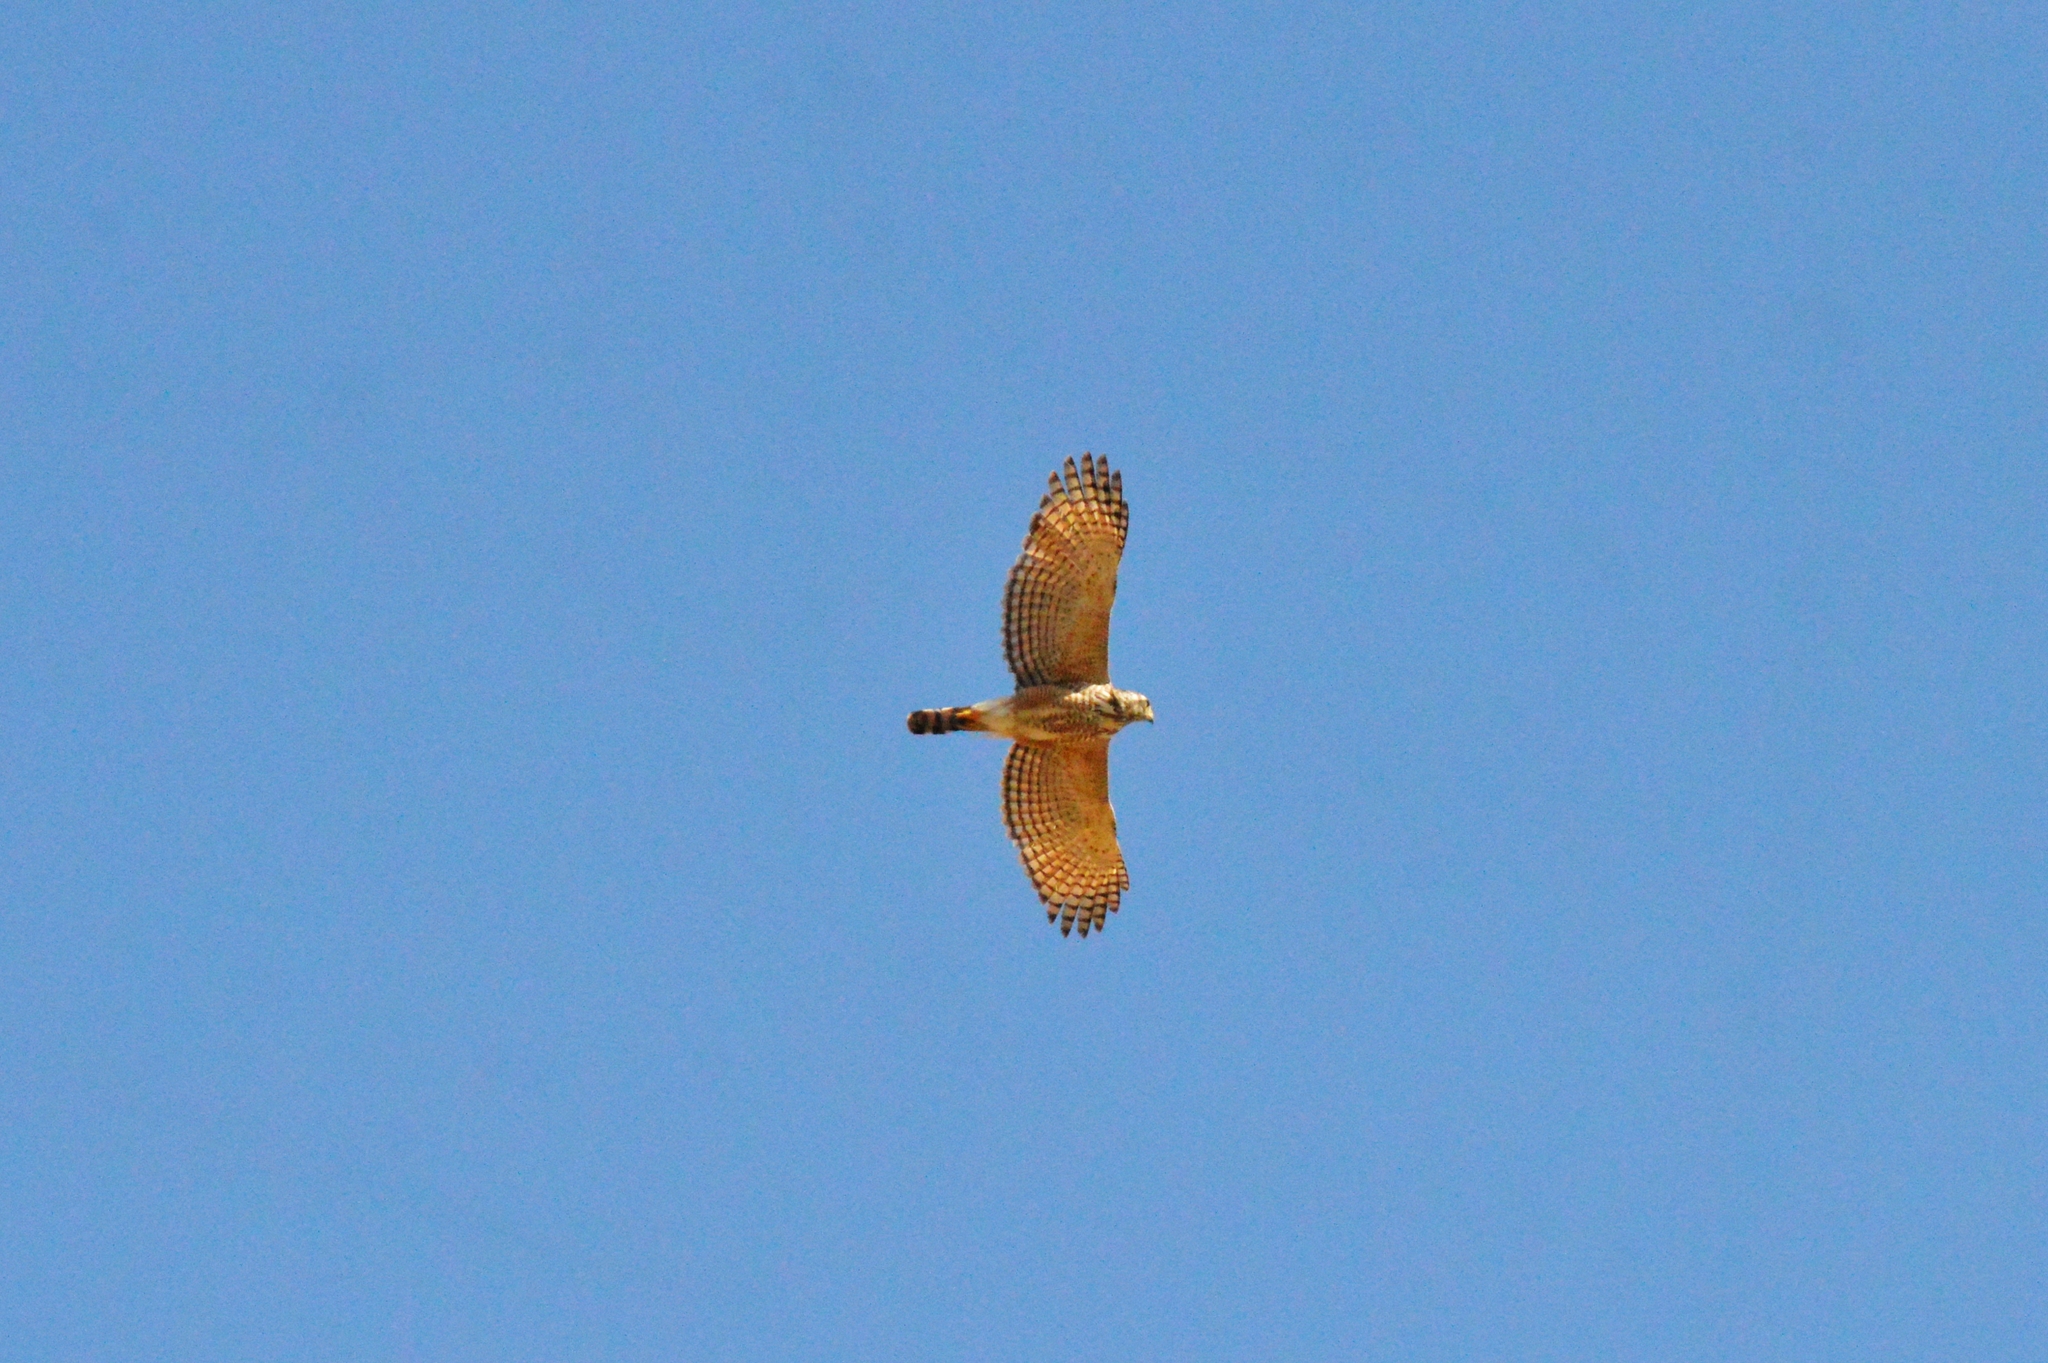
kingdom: Animalia
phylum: Chordata
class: Aves
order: Accipitriformes
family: Accipitridae
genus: Rupornis
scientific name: Rupornis magnirostris
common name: Roadside hawk
